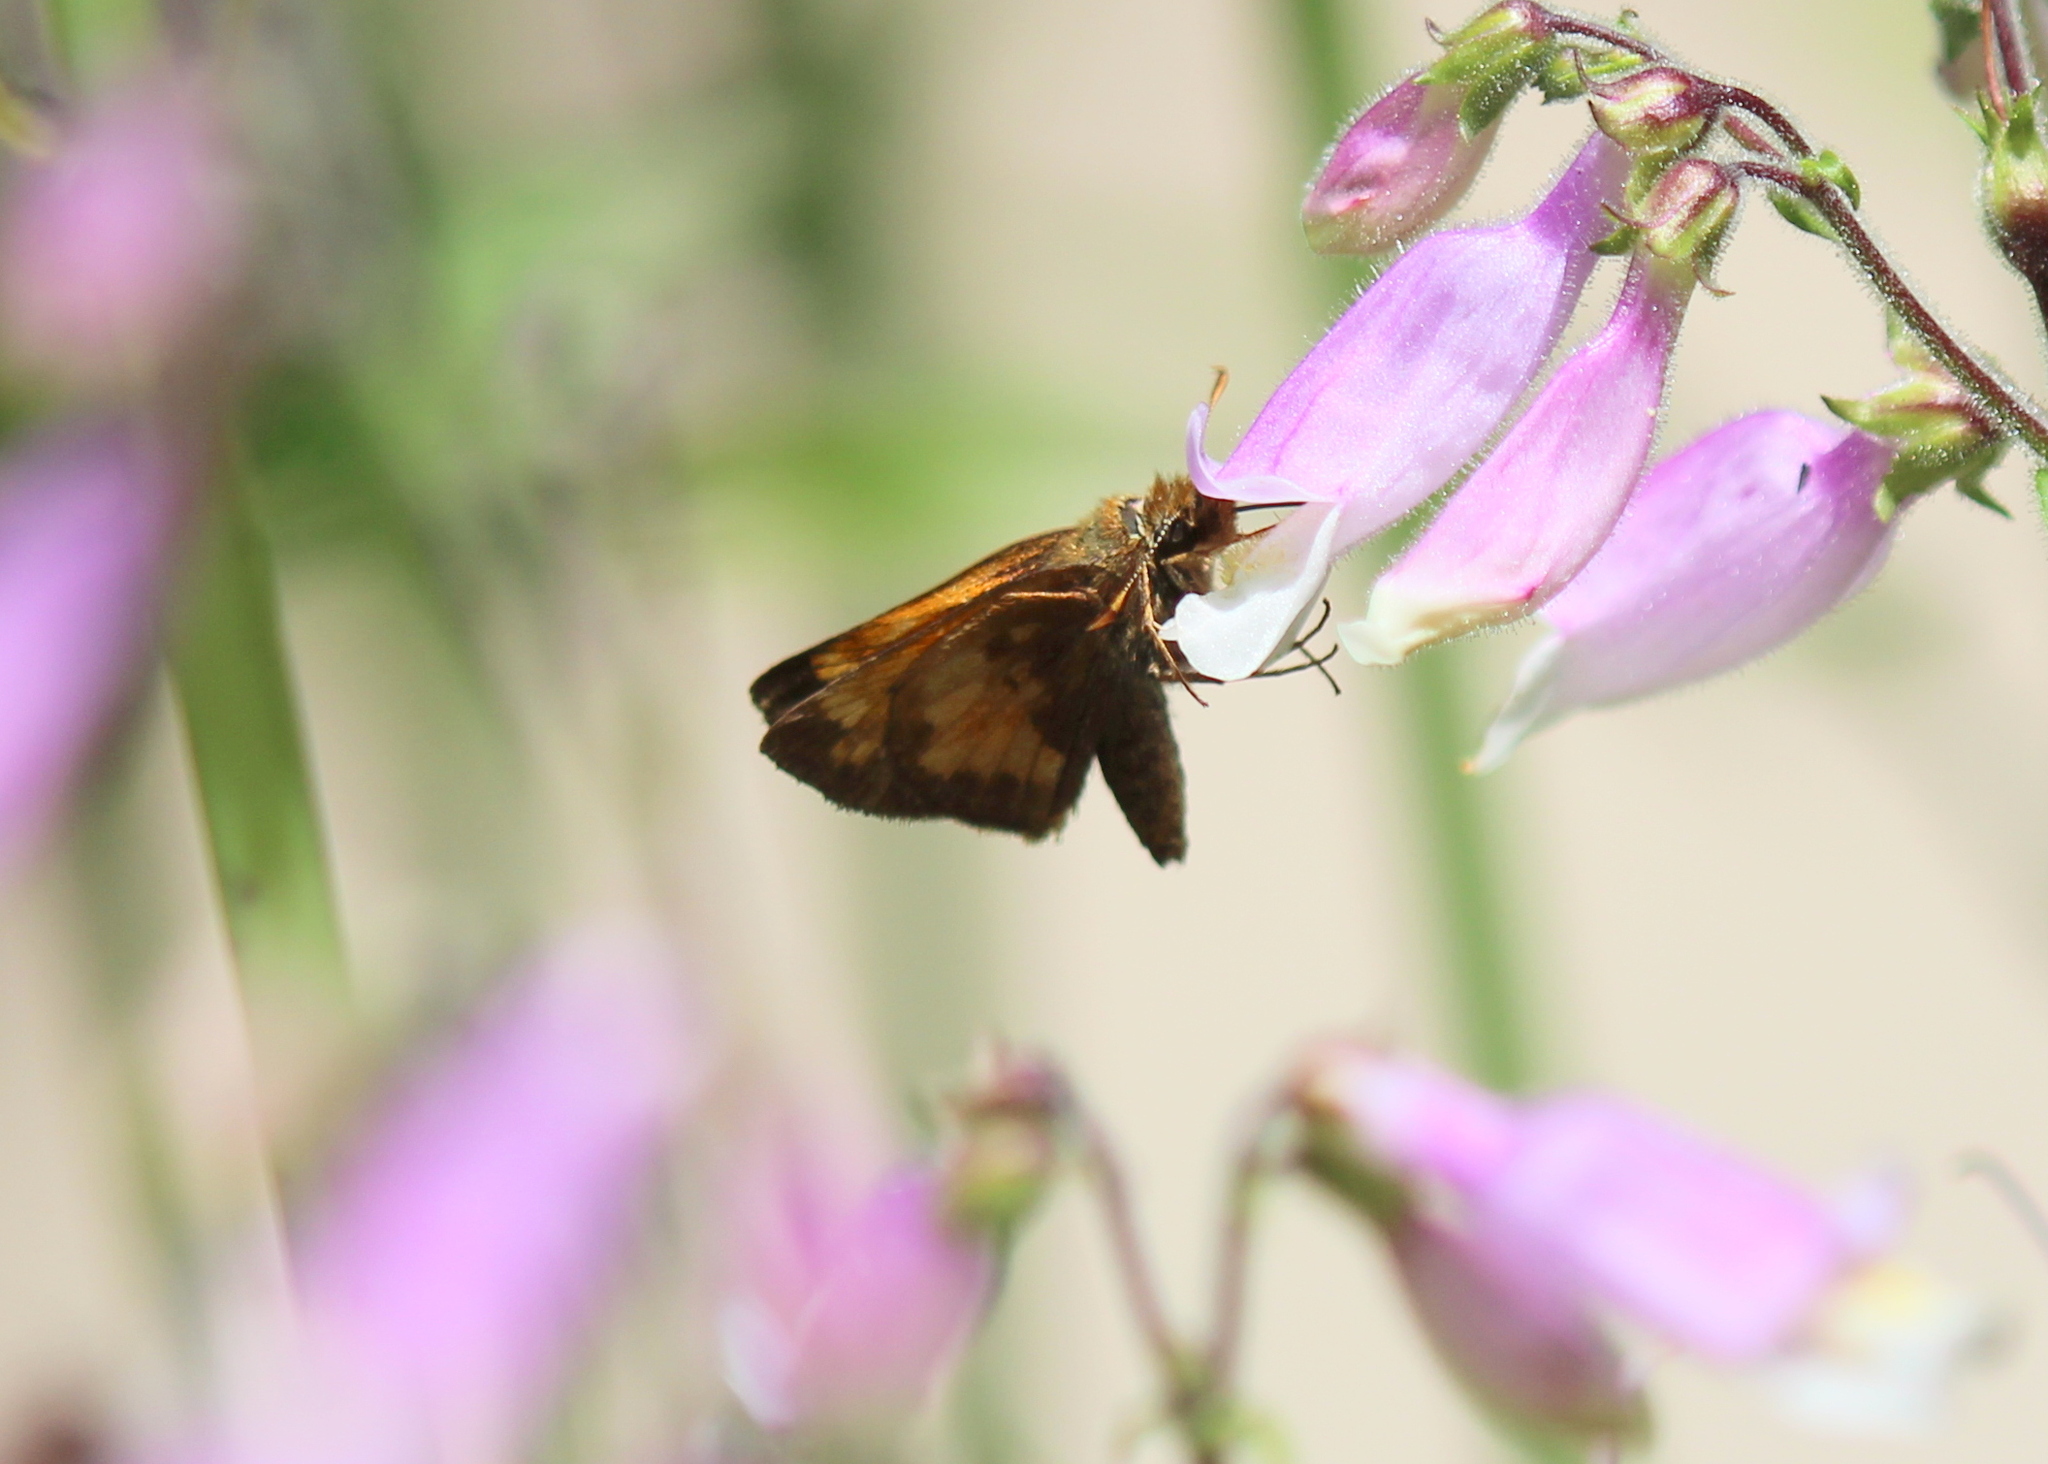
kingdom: Animalia
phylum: Arthropoda
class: Insecta
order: Lepidoptera
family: Hesperiidae
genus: Lon
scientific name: Lon hobomok
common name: Hobomok skipper
